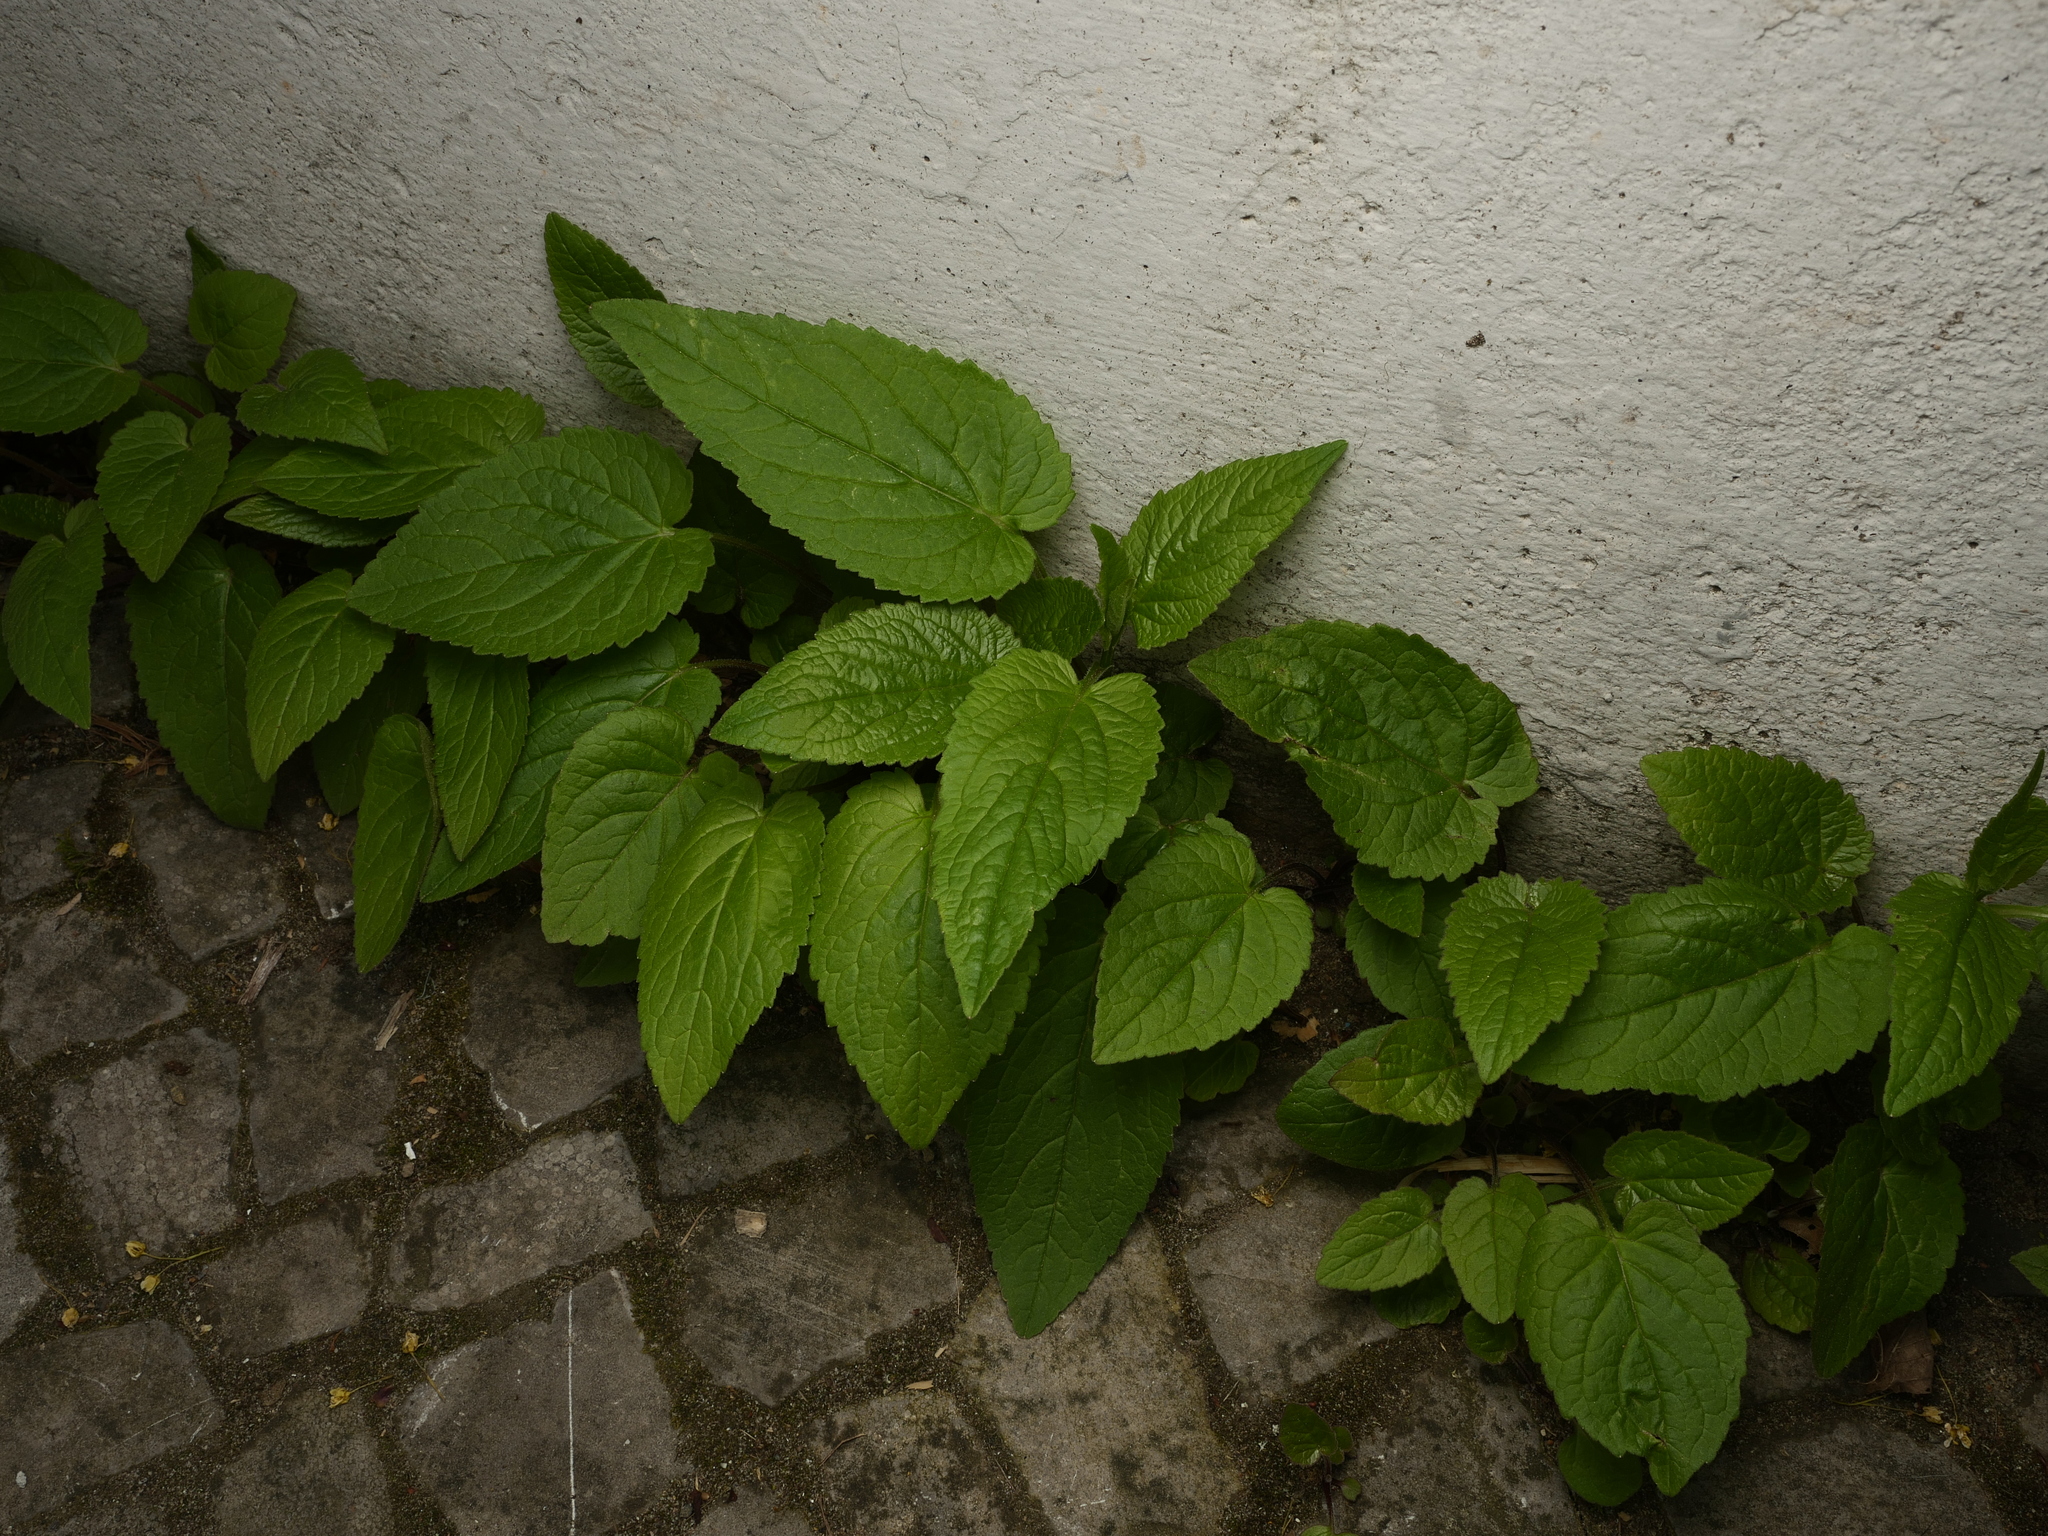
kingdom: Plantae
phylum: Tracheophyta
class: Magnoliopsida
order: Asterales
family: Campanulaceae
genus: Campanula
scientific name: Campanula rapunculoides
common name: Creeping bellflower
